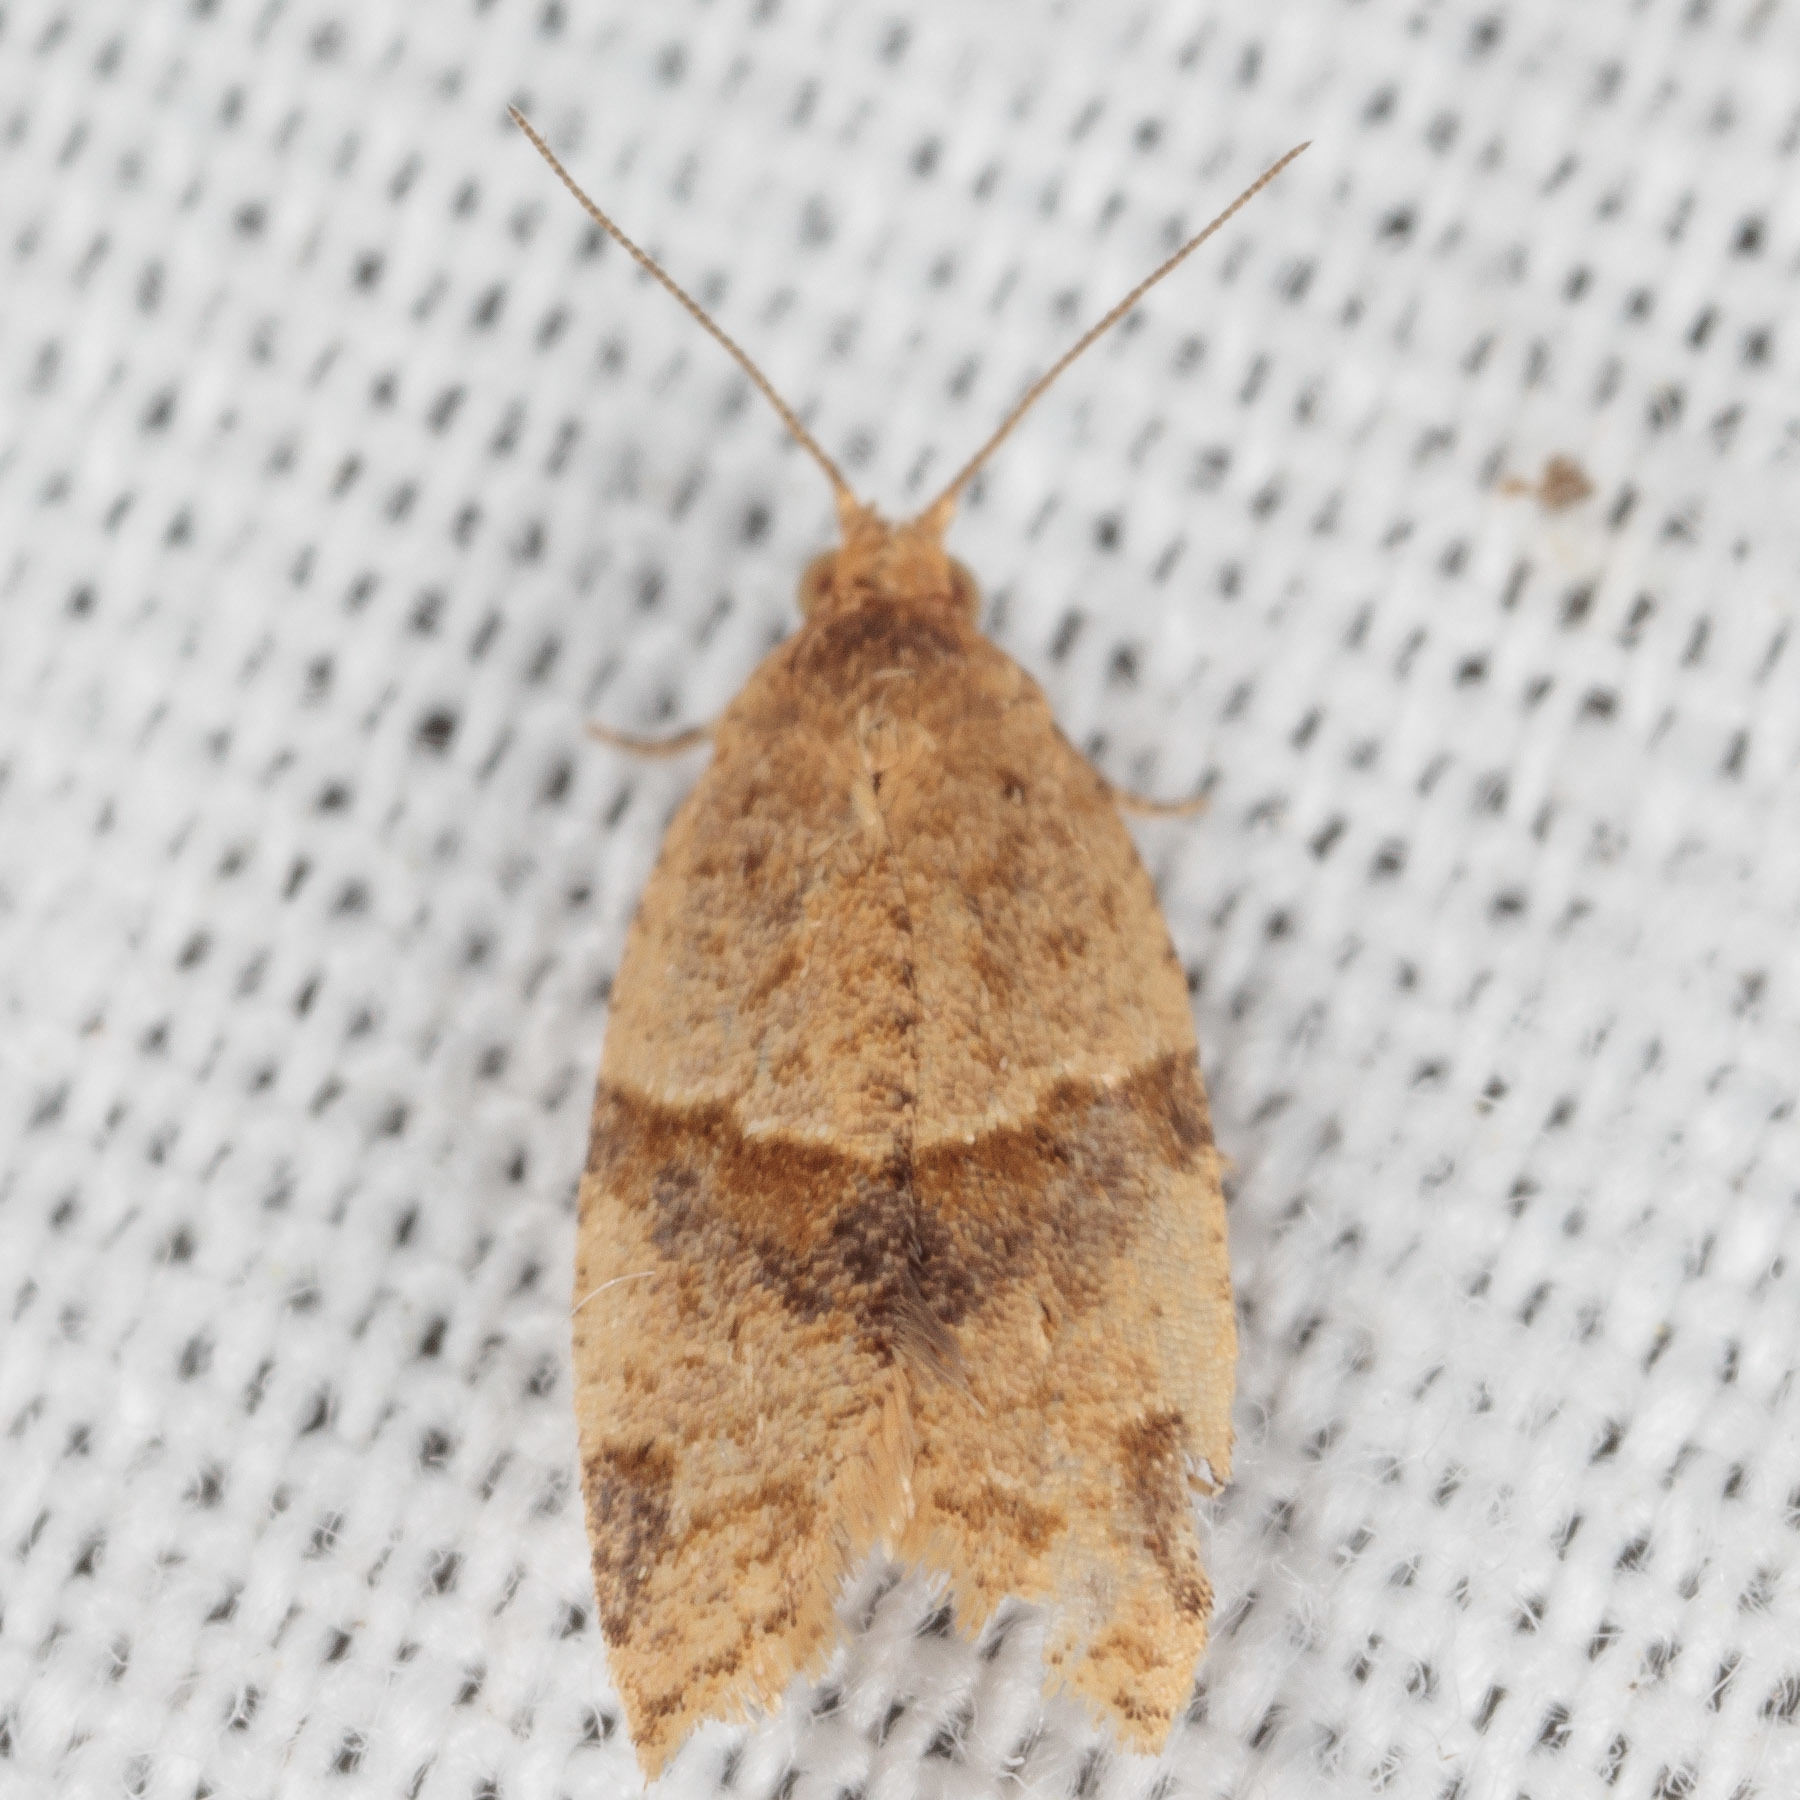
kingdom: Animalia
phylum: Arthropoda
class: Insecta
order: Lepidoptera
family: Tortricidae
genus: Clepsis
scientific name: Clepsis peritana
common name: Garden tortrix
